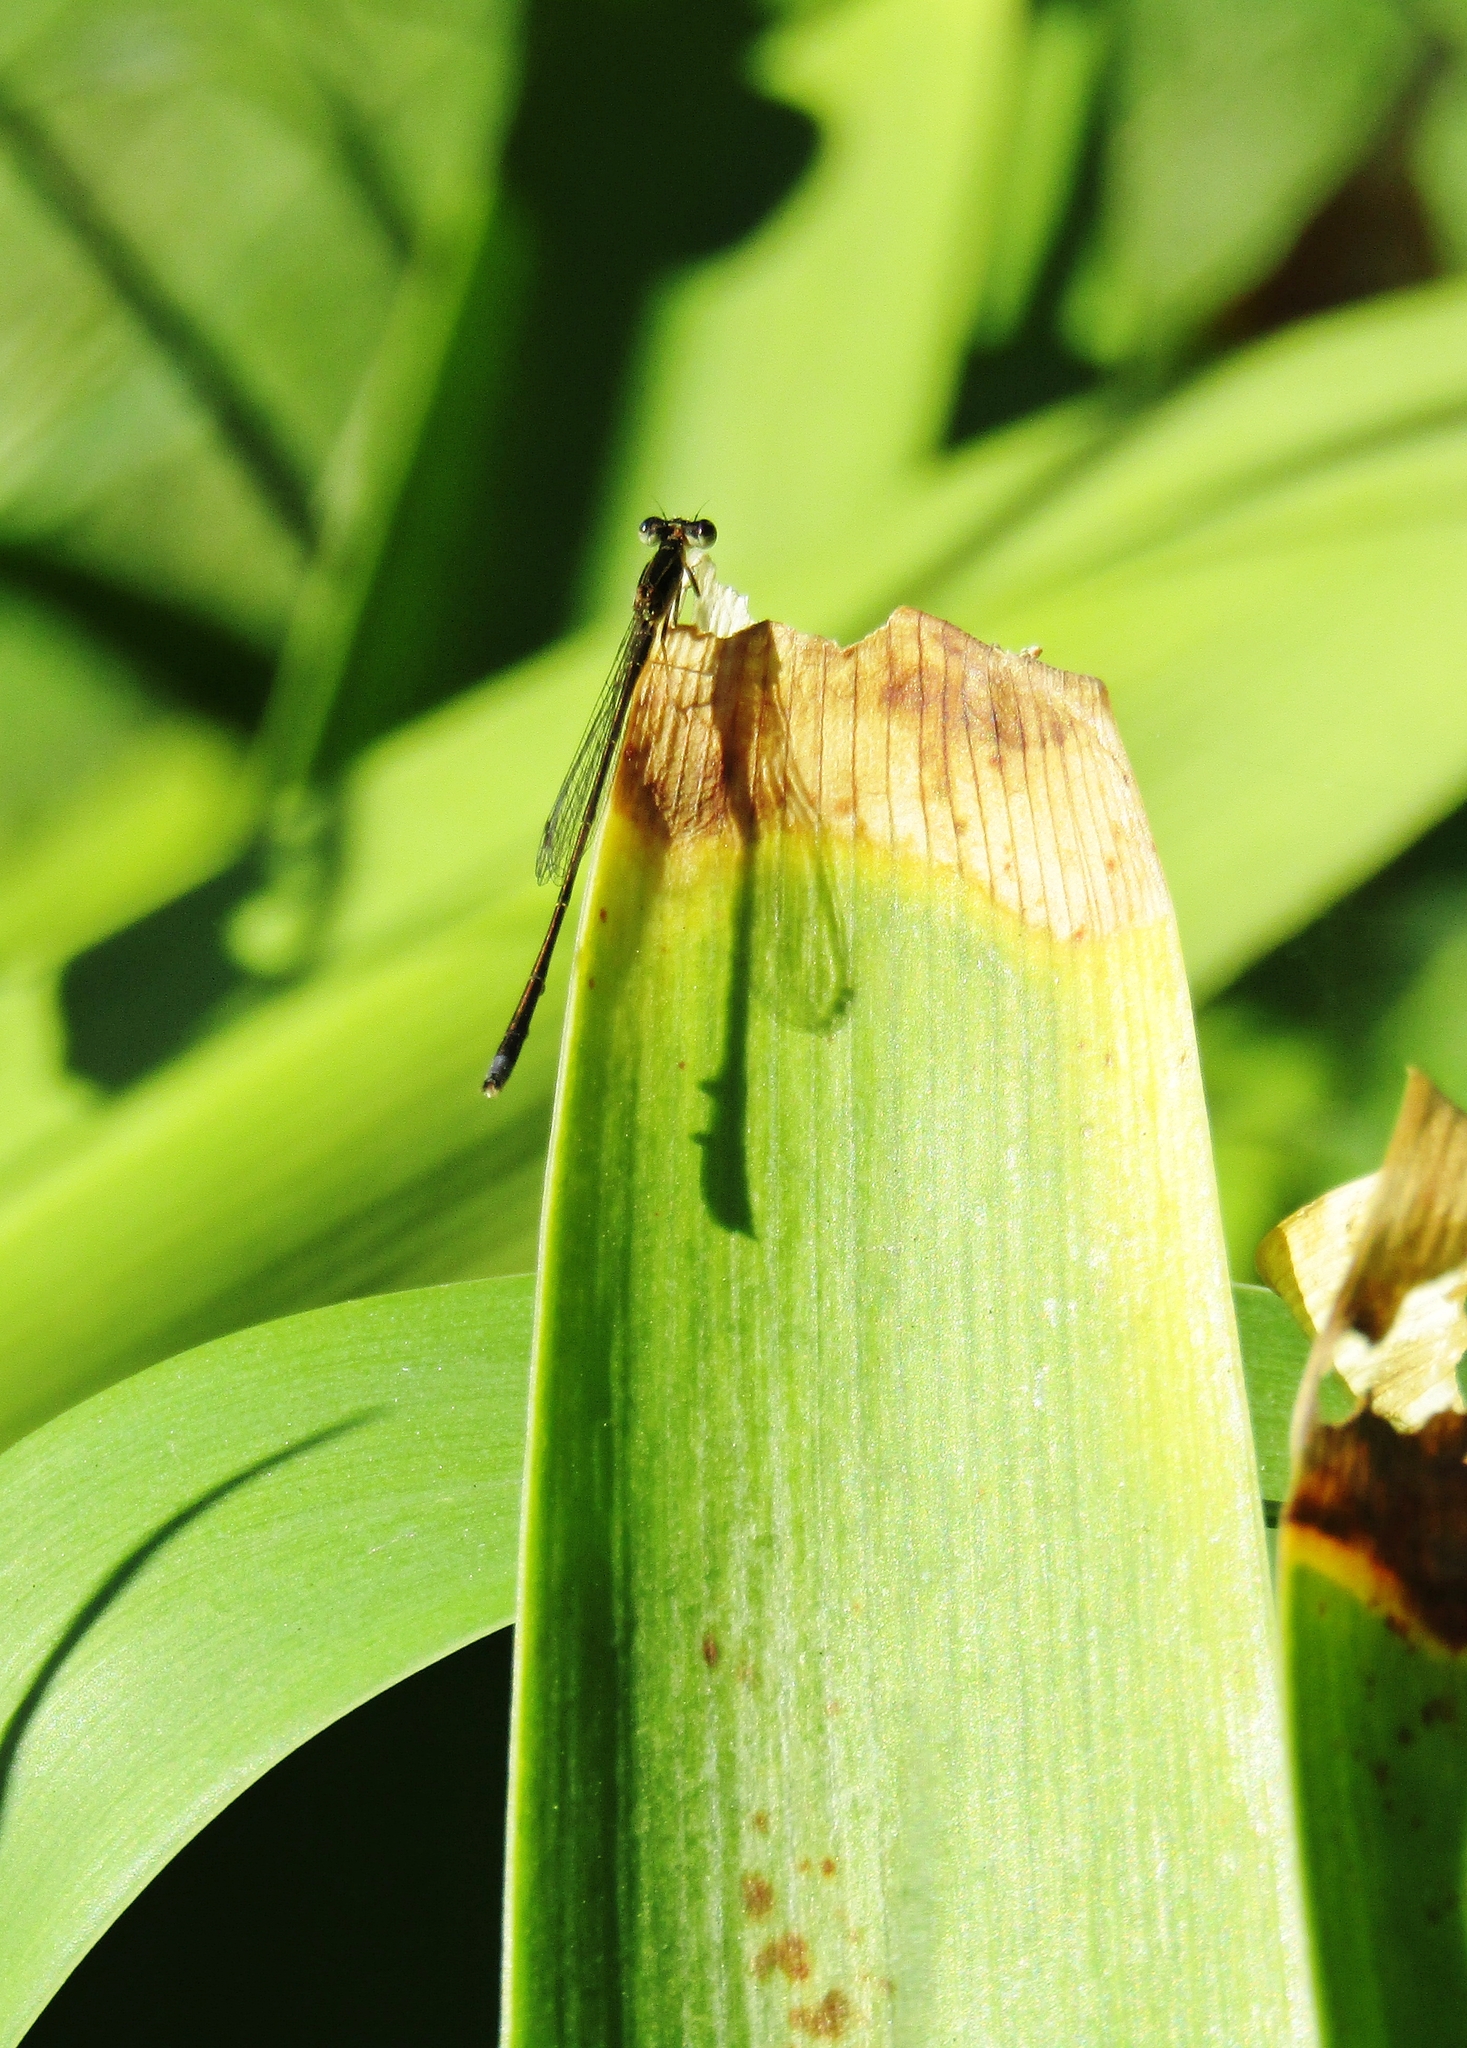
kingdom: Animalia
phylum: Arthropoda
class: Insecta
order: Odonata
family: Coenagrionidae
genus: Argentagrion
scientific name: Argentagrion ambiguum
